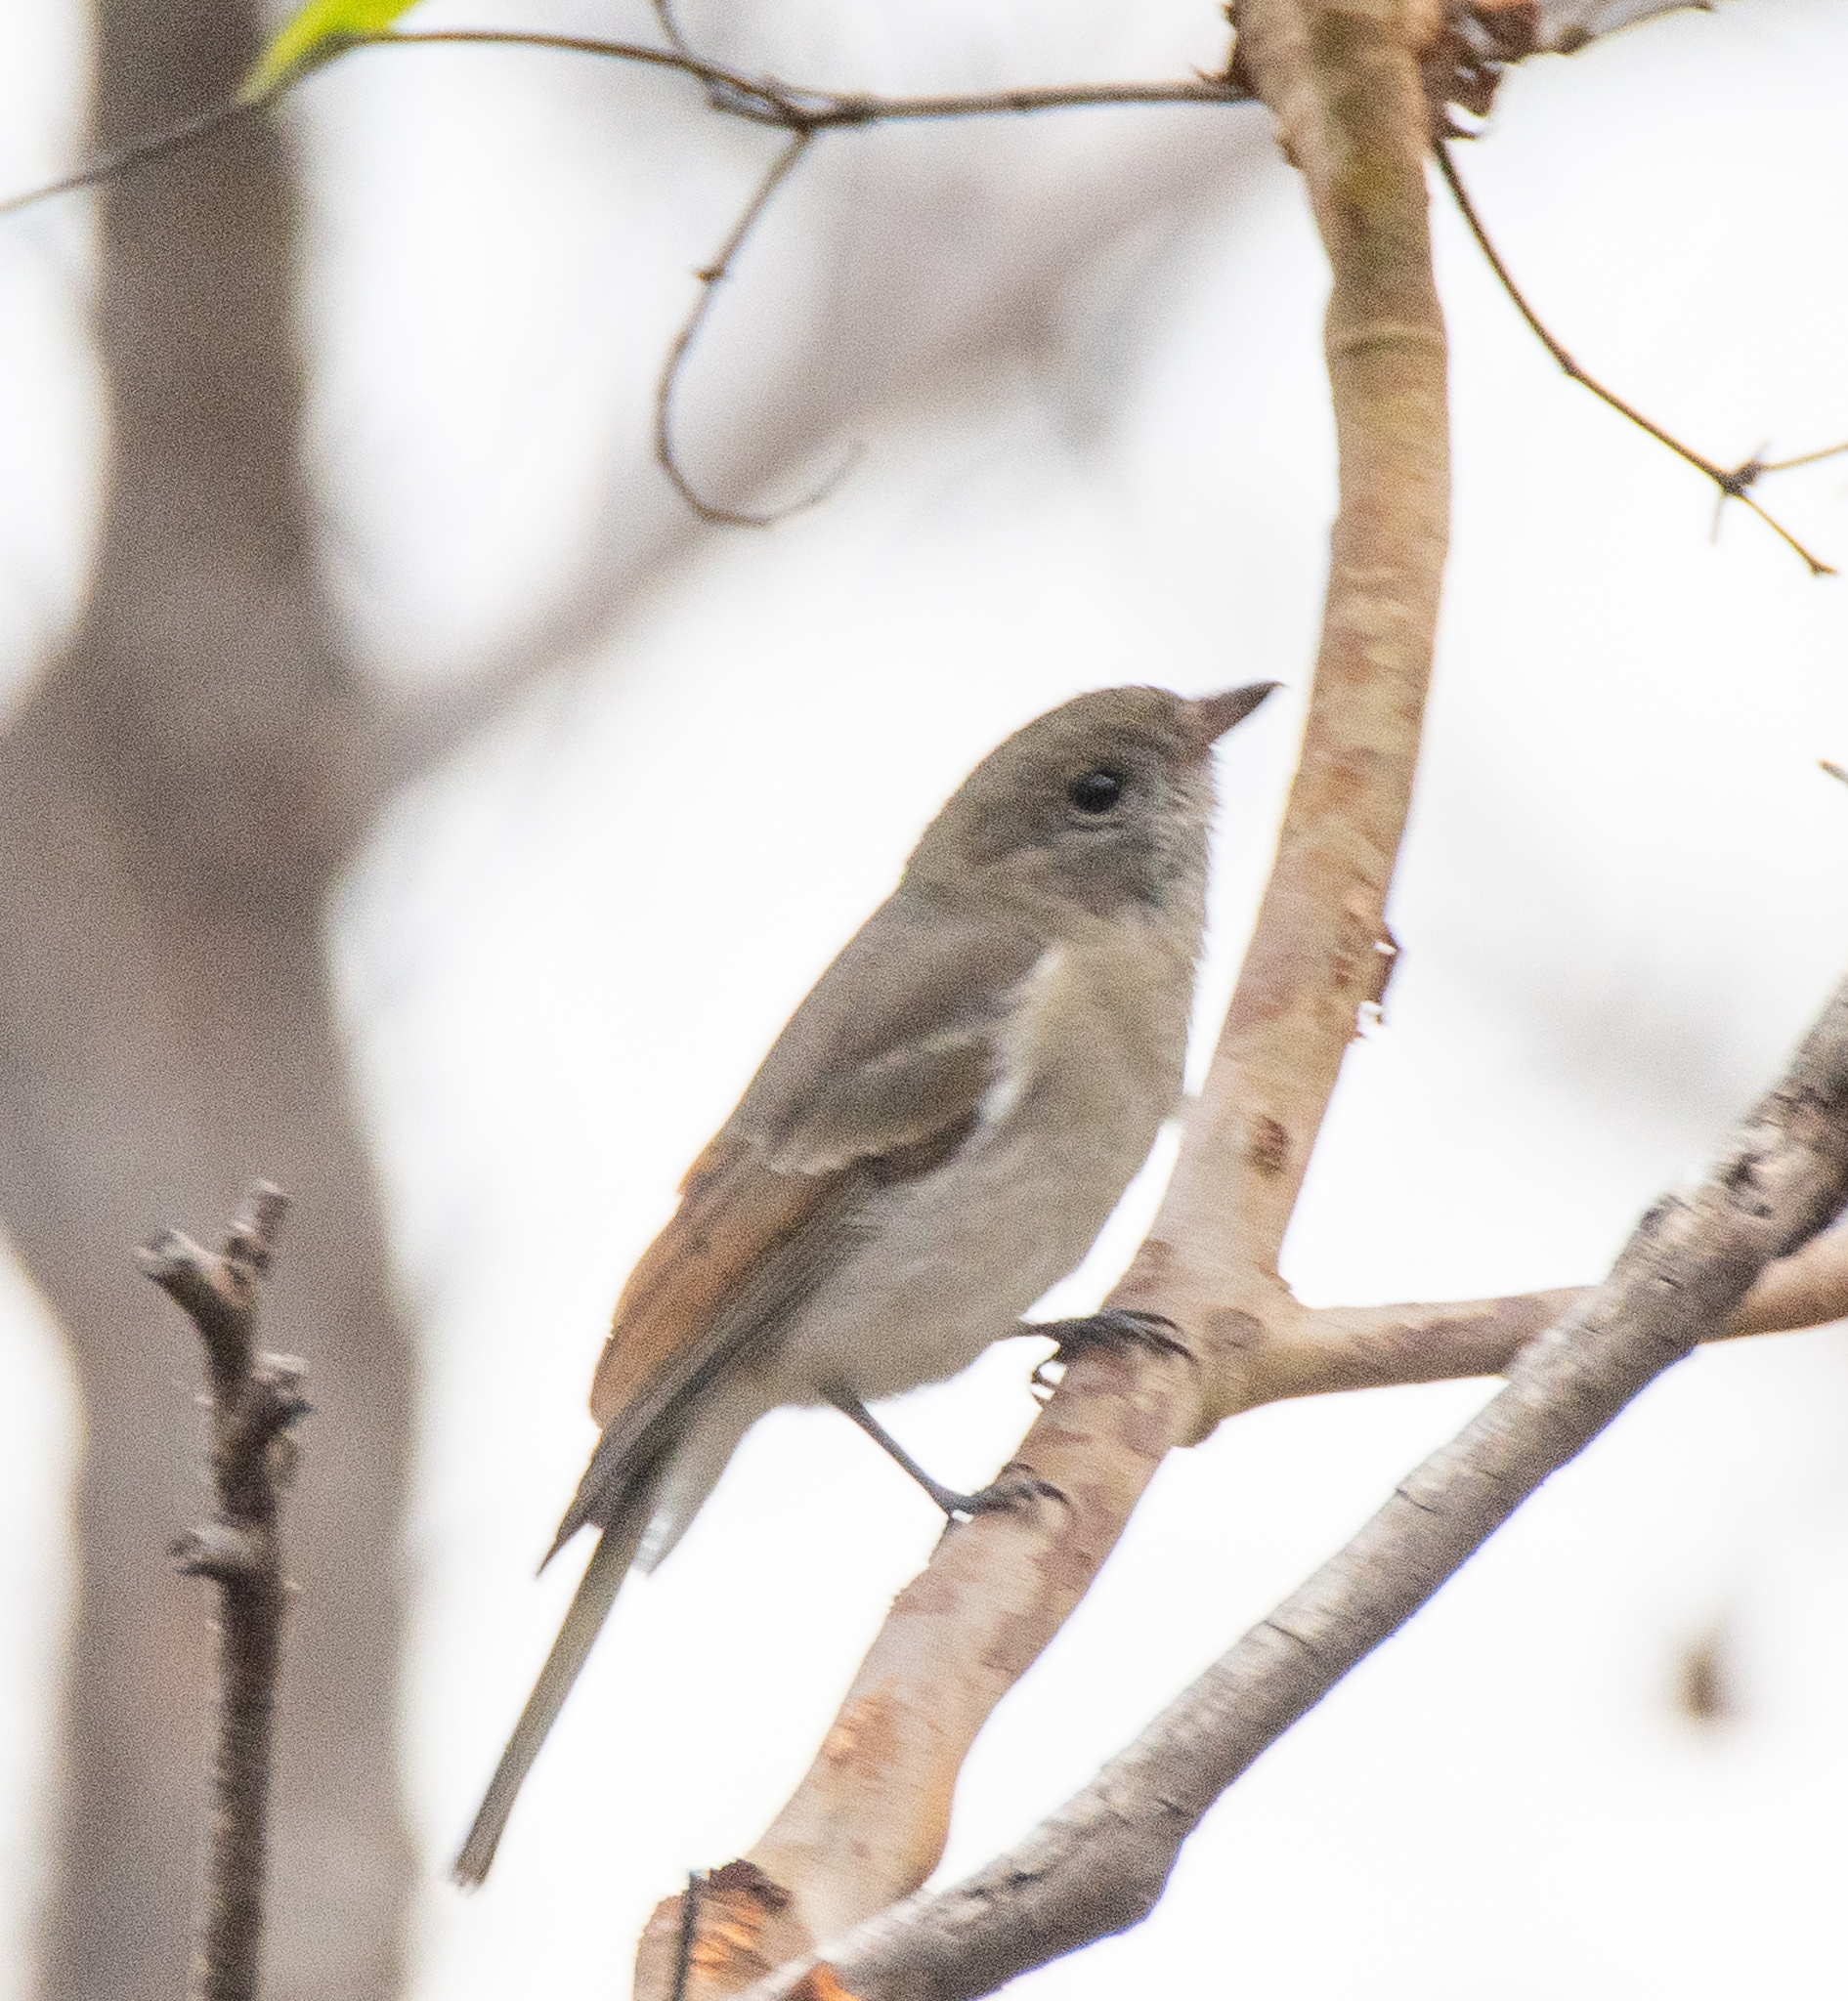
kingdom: Animalia
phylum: Chordata
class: Aves
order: Passeriformes
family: Pachycephalidae
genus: Pachycephala
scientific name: Pachycephala pectoralis
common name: Australian golden whistler
